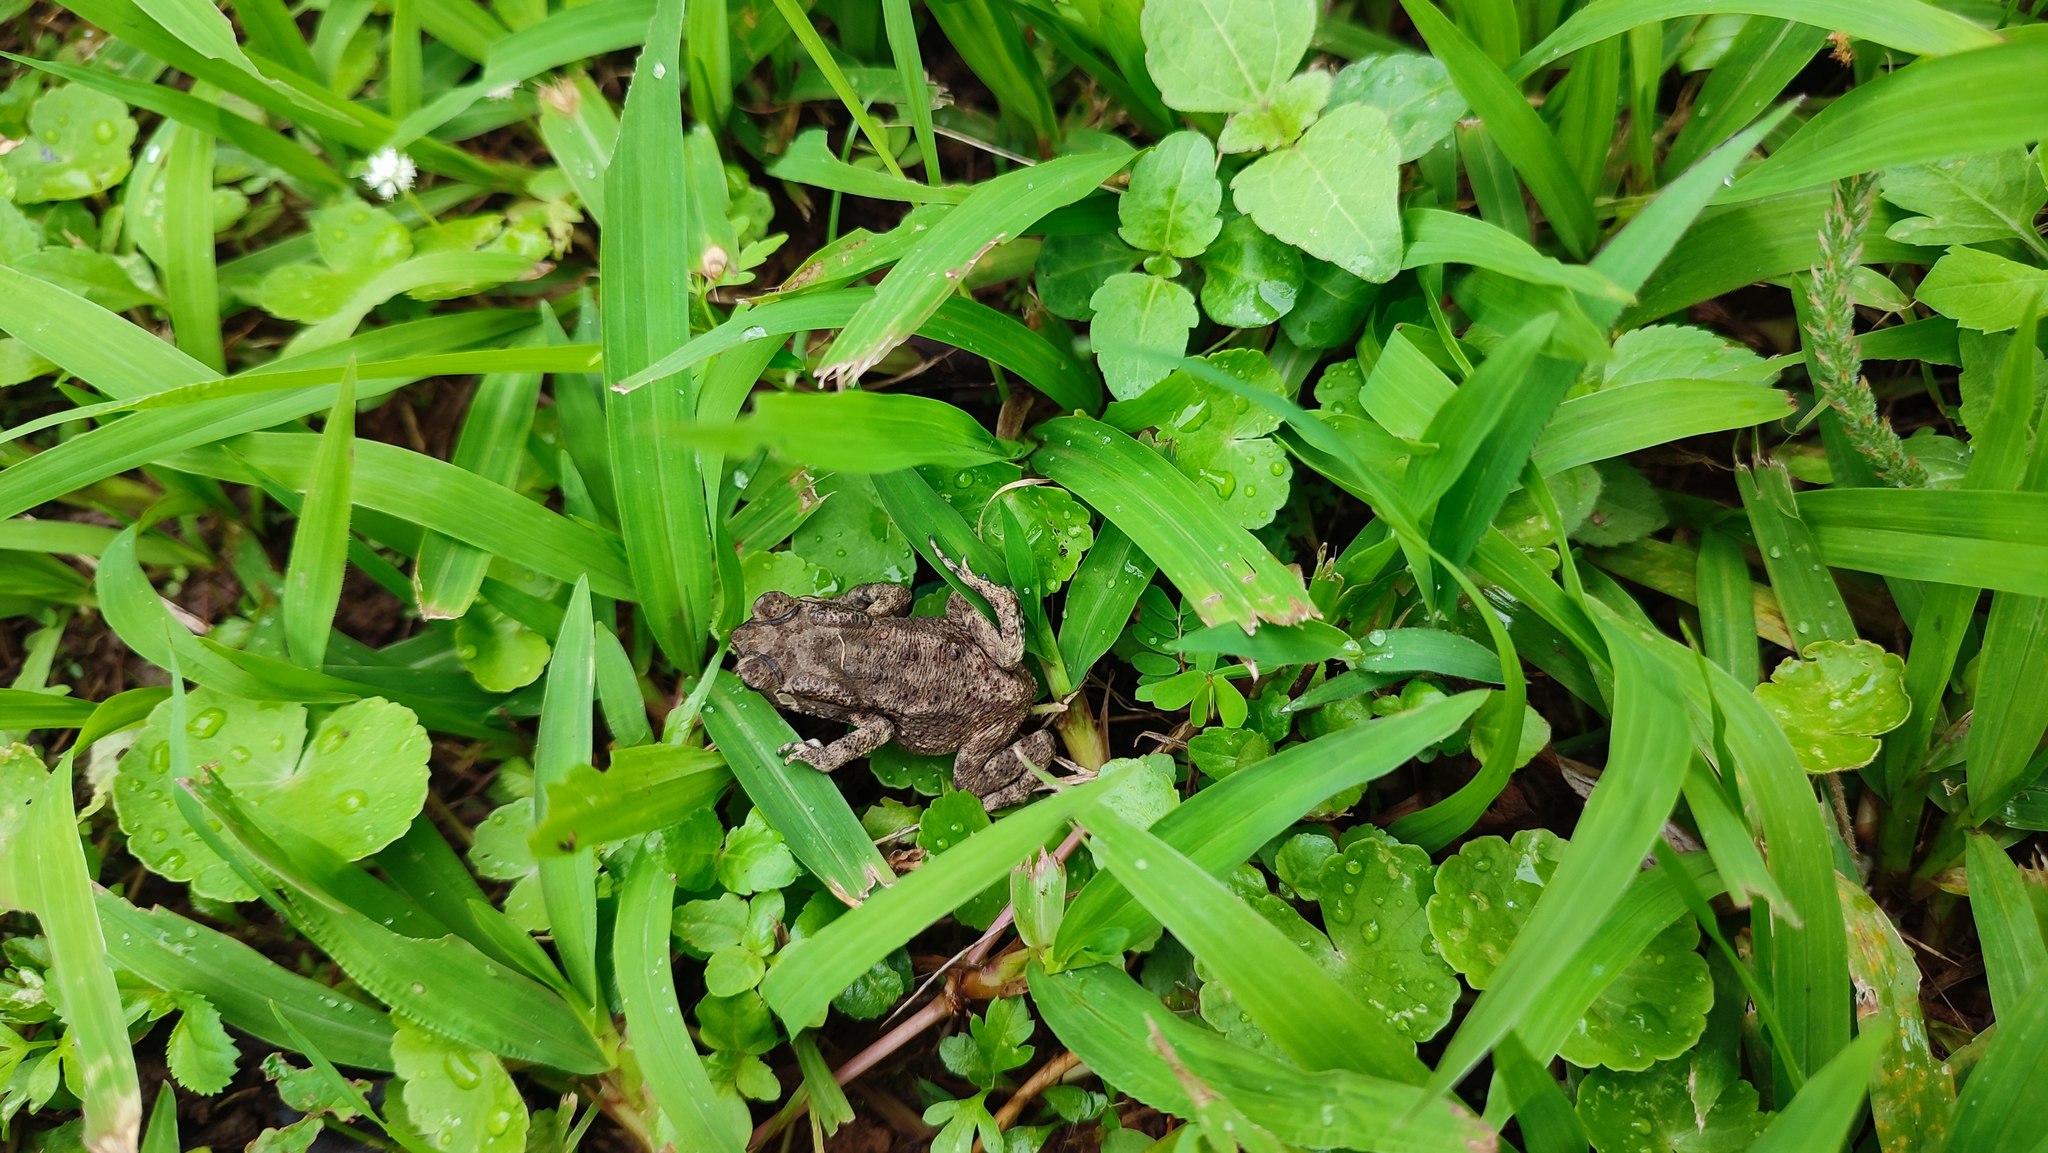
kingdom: Animalia
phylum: Chordata
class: Amphibia
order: Anura
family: Bufonidae
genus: Duttaphrynus
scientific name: Duttaphrynus melanostictus
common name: Common sunda toad
